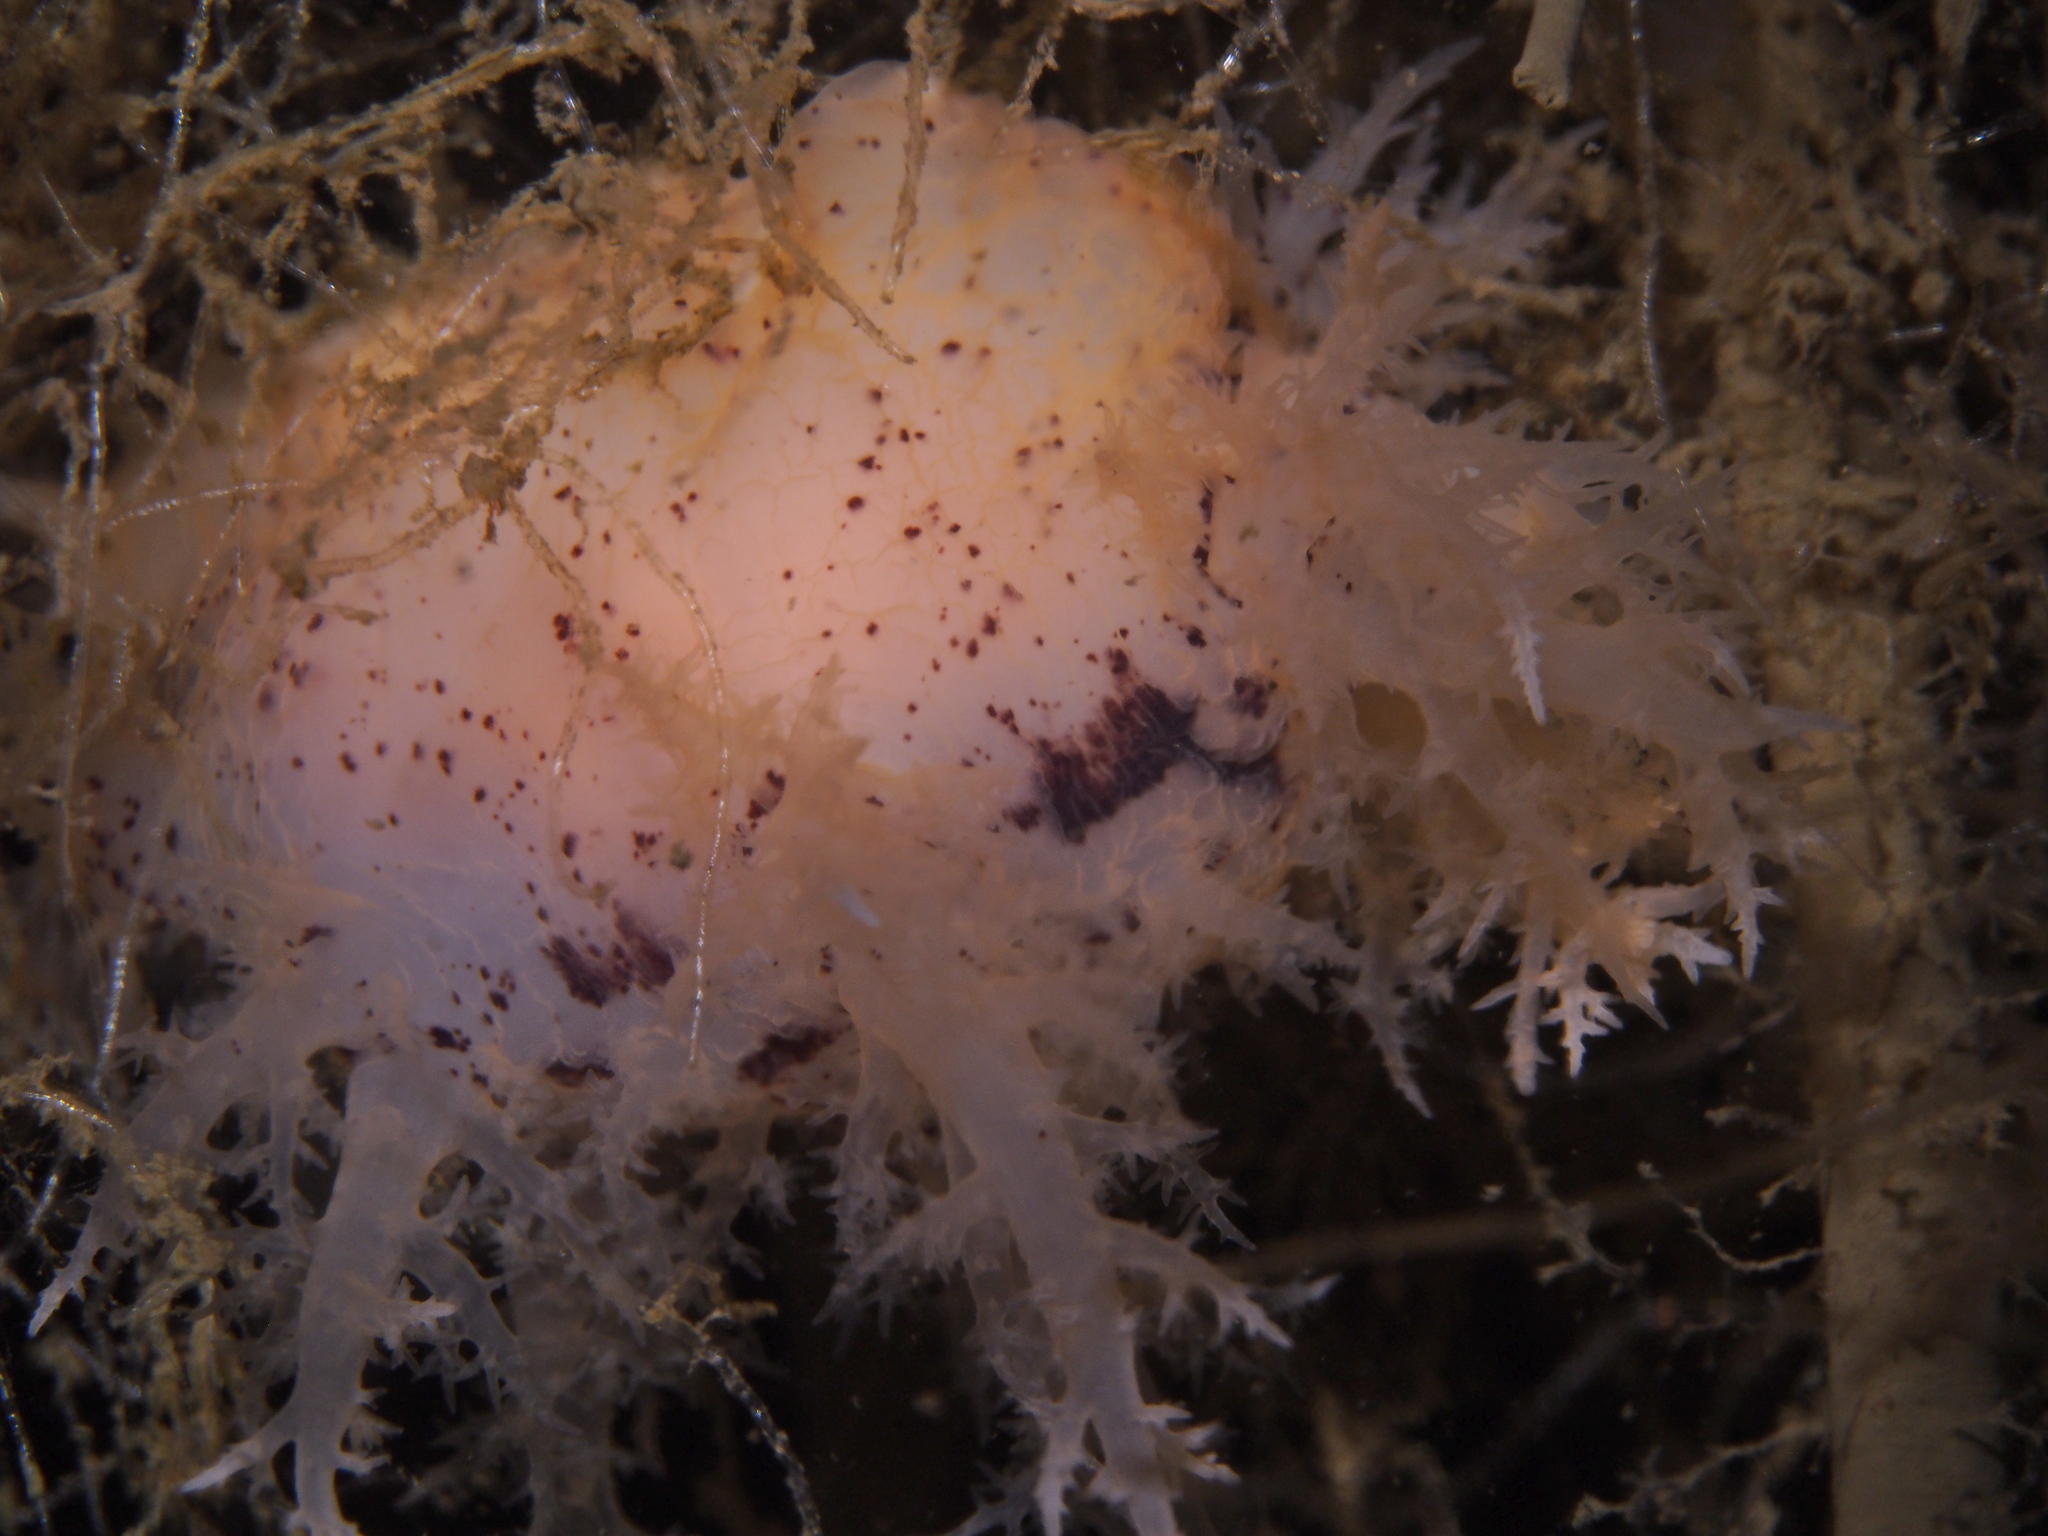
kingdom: Animalia
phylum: Mollusca
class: Gastropoda
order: Nudibranchia
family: Dendronotidae
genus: Dendronotus
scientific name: Dendronotus europaeus
